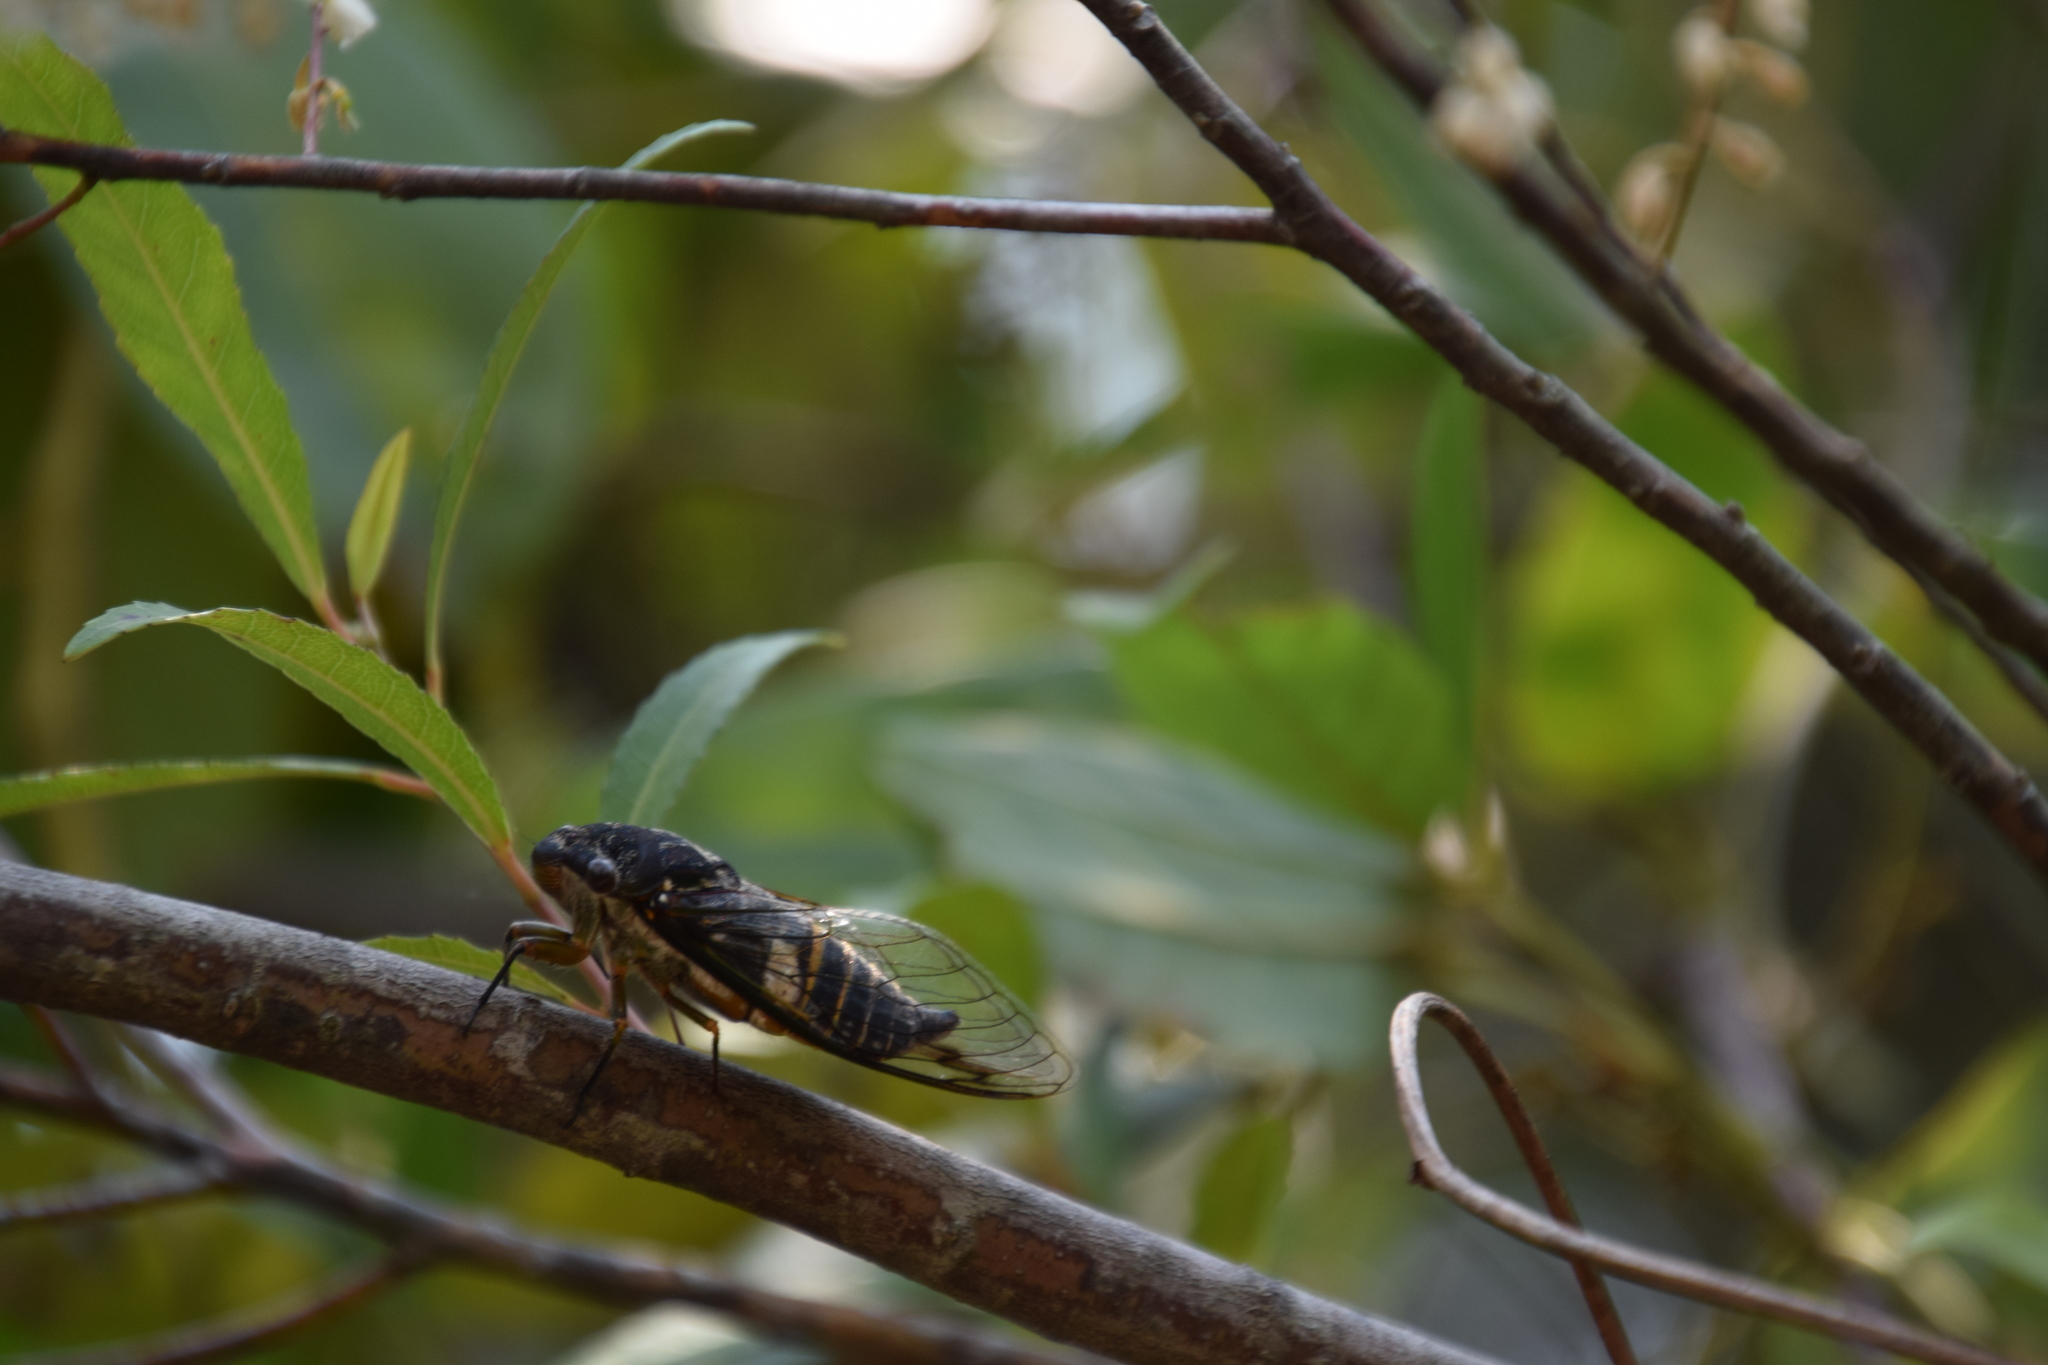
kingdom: Animalia
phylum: Arthropoda
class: Insecta
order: Hemiptera
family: Cicadidae
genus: Psaltoda
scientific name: Psaltoda plaga
